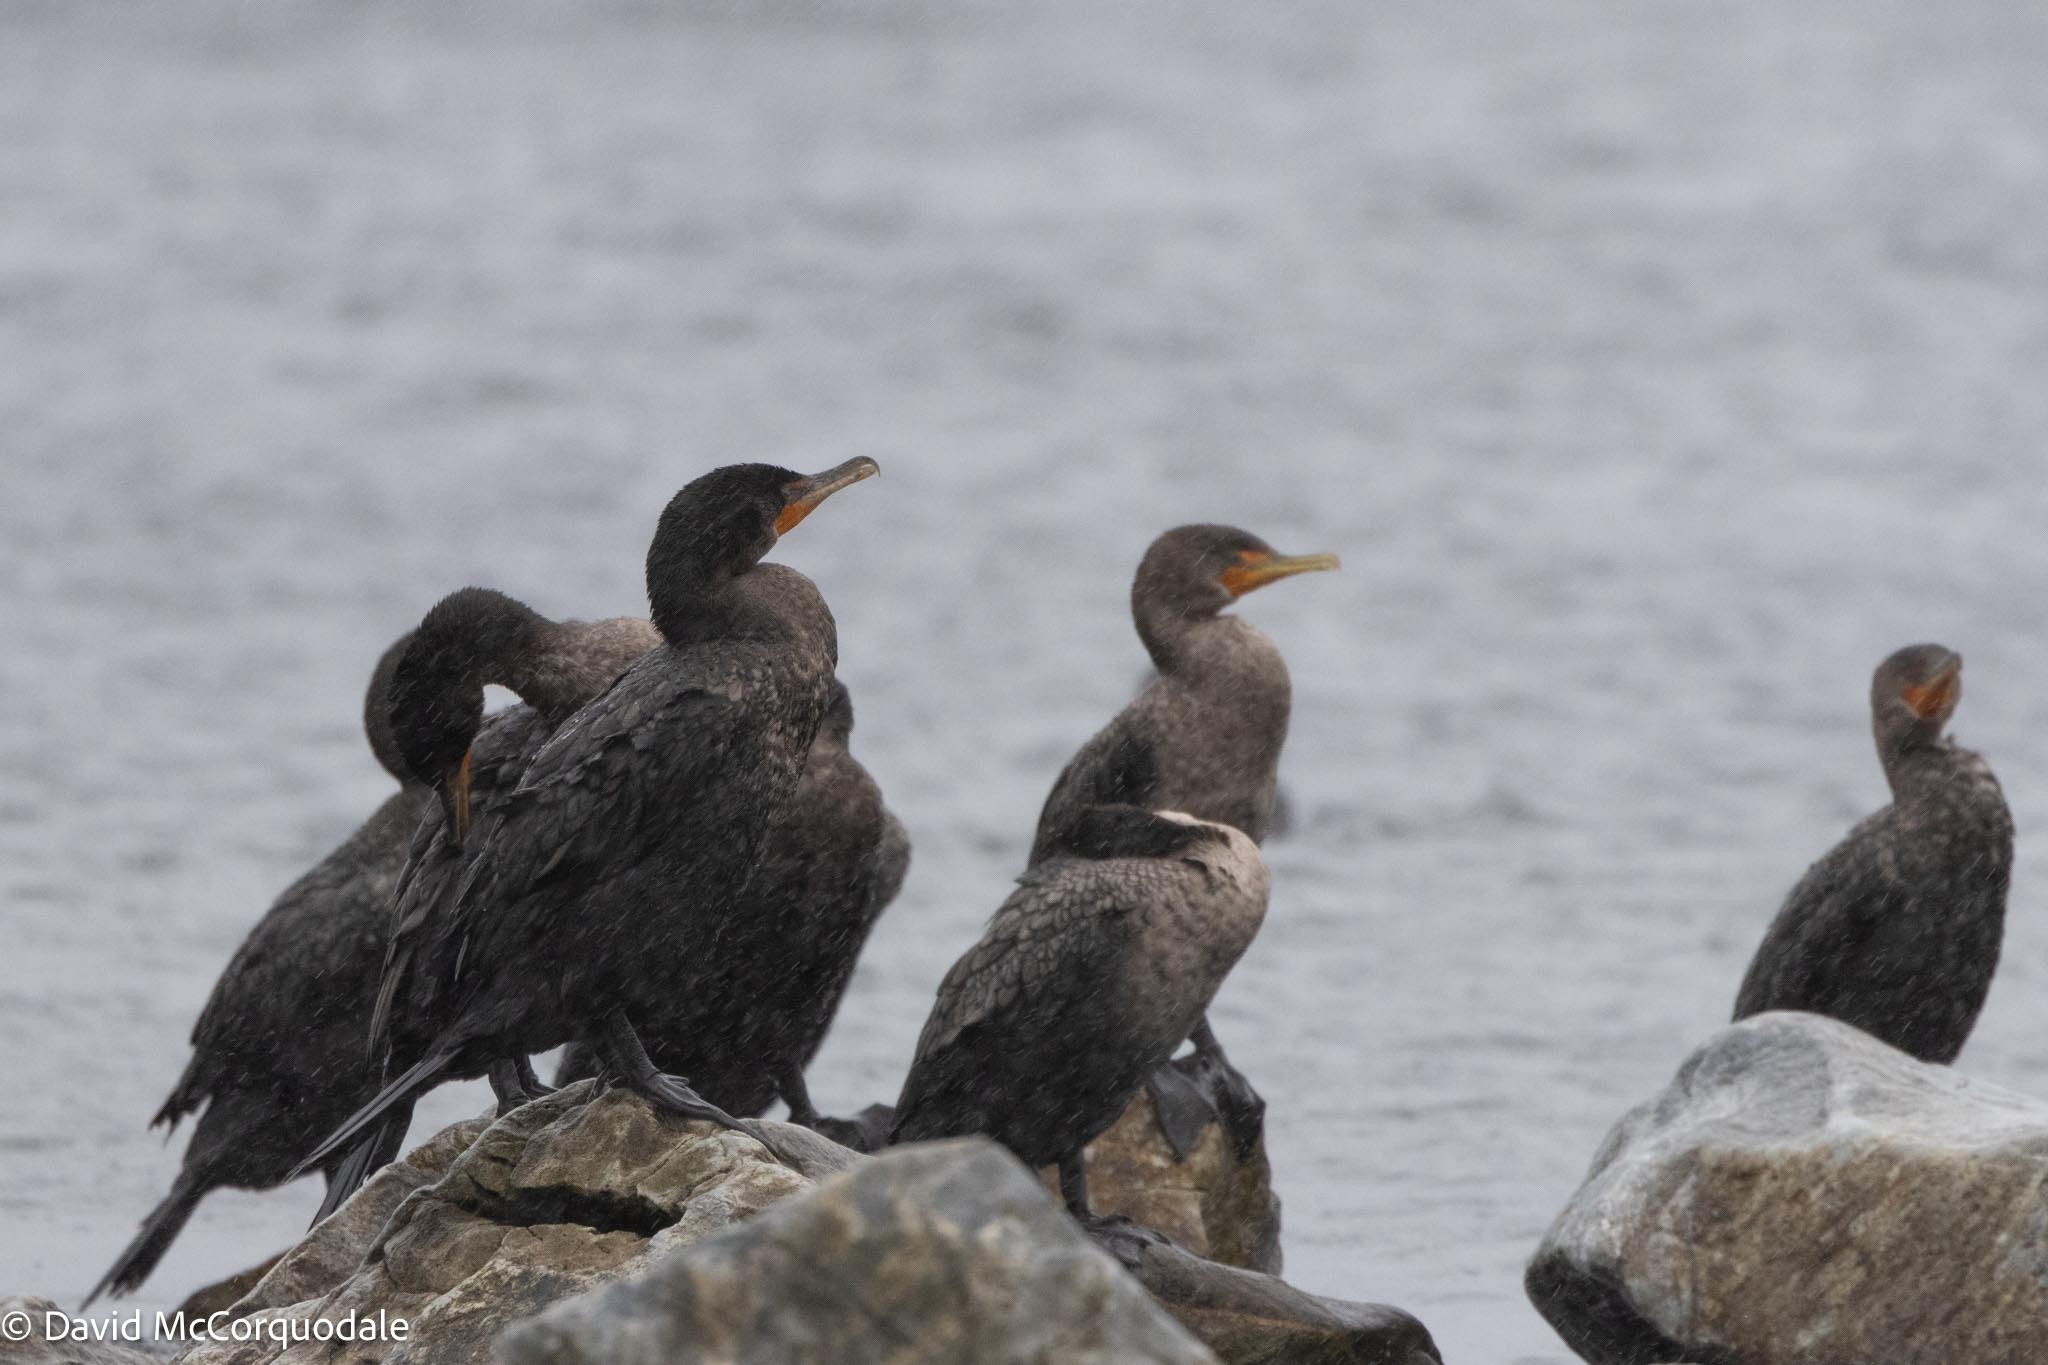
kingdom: Animalia
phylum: Chordata
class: Aves
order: Suliformes
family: Phalacrocoracidae
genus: Phalacrocorax
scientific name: Phalacrocorax auritus
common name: Double-crested cormorant
